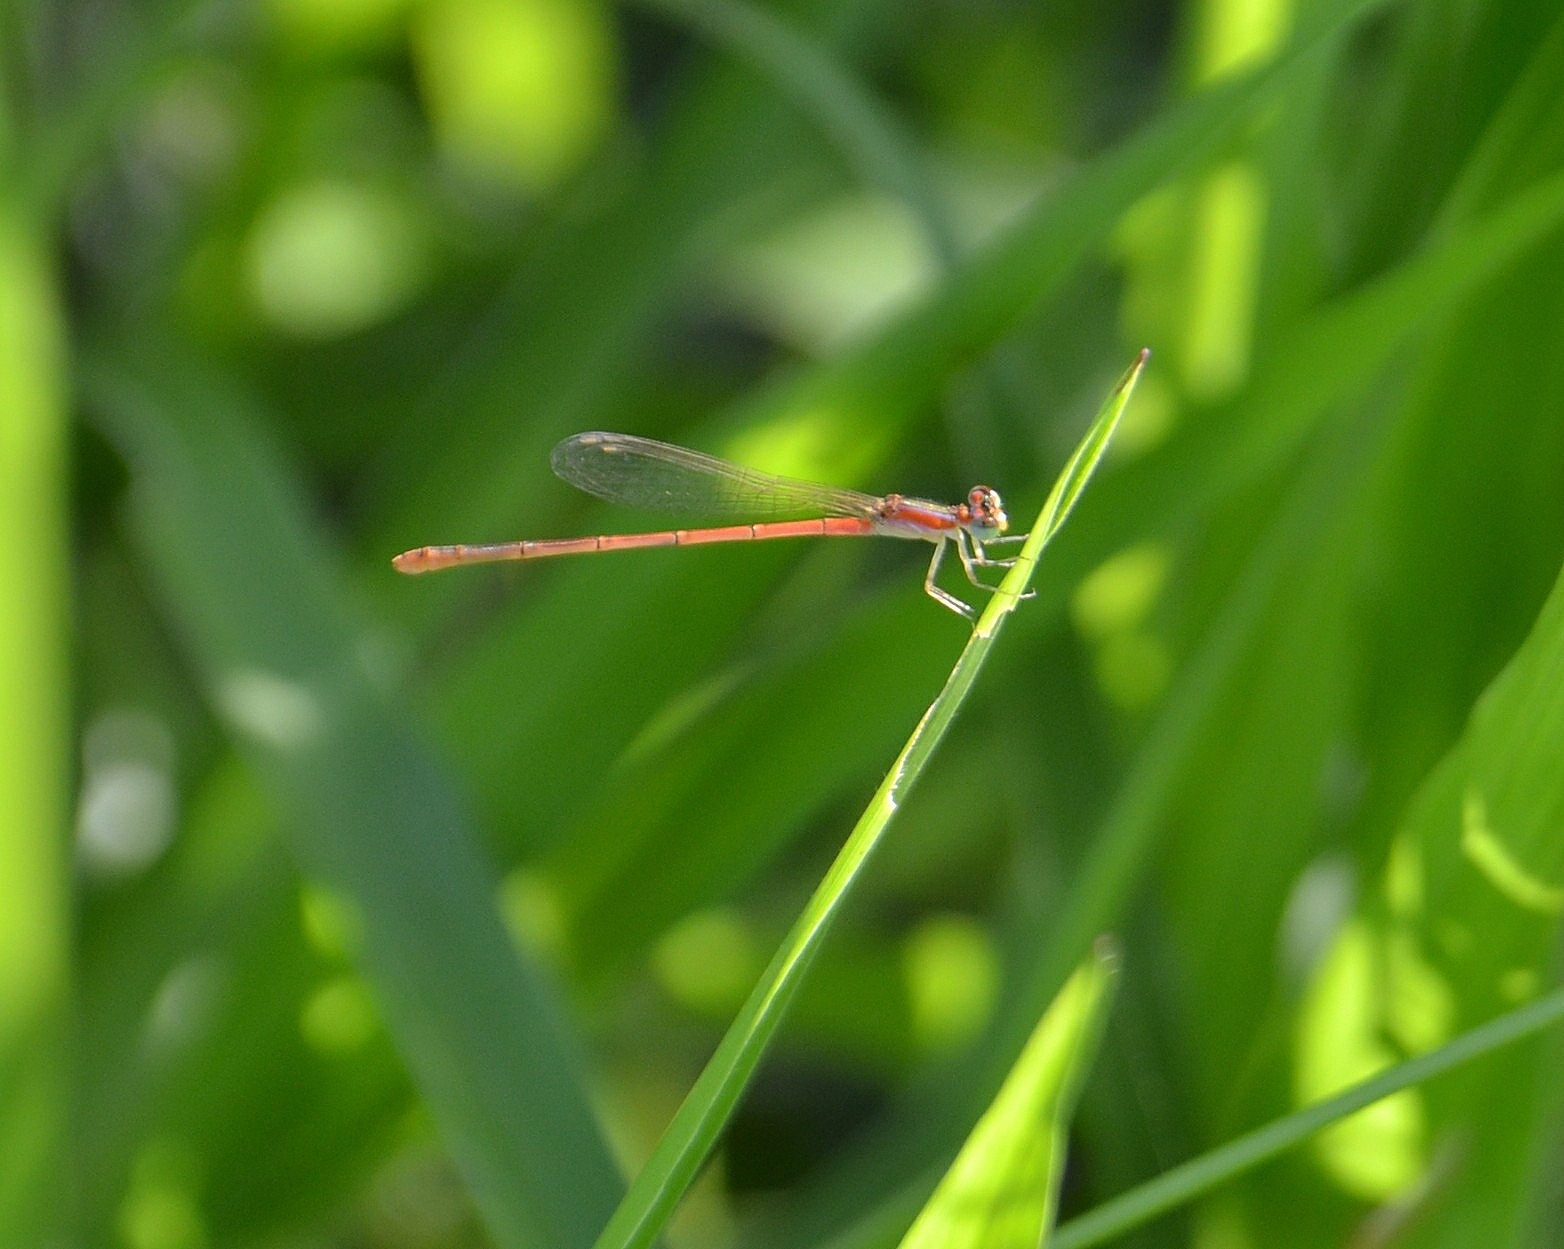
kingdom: Animalia
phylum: Arthropoda
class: Insecta
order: Odonata
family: Coenagrionidae
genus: Agriocnemis
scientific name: Agriocnemis pygmaea
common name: Pygmy wisp
